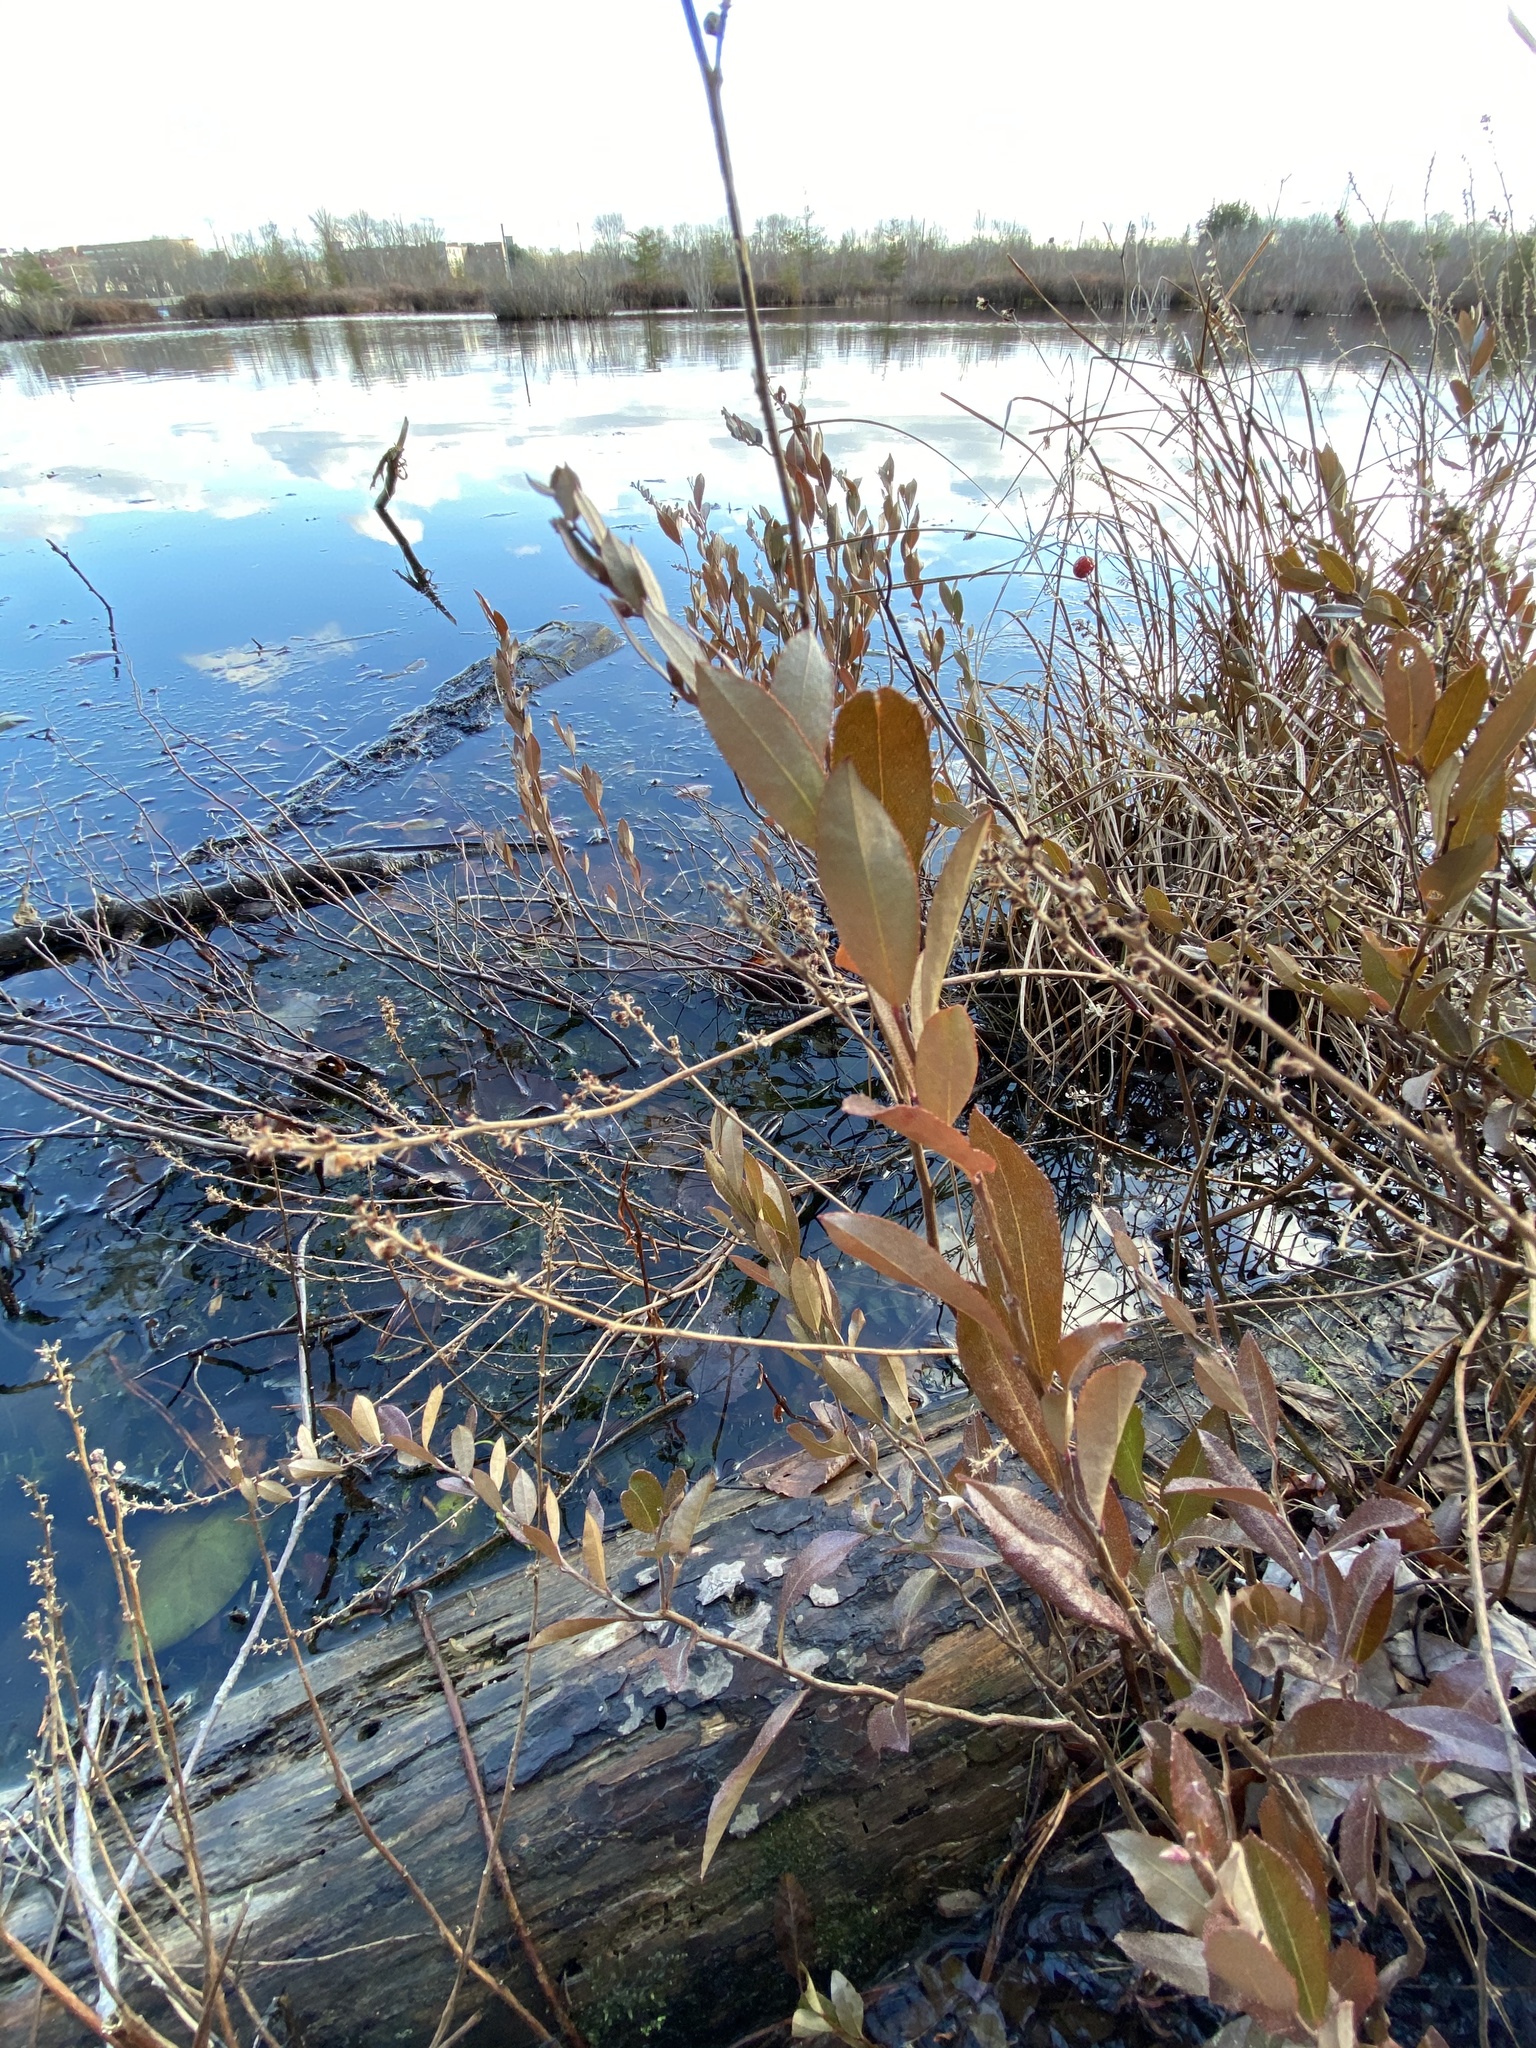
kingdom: Plantae
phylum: Tracheophyta
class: Magnoliopsida
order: Ericales
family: Ericaceae
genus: Chamaedaphne
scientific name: Chamaedaphne calyculata
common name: Leatherleaf
